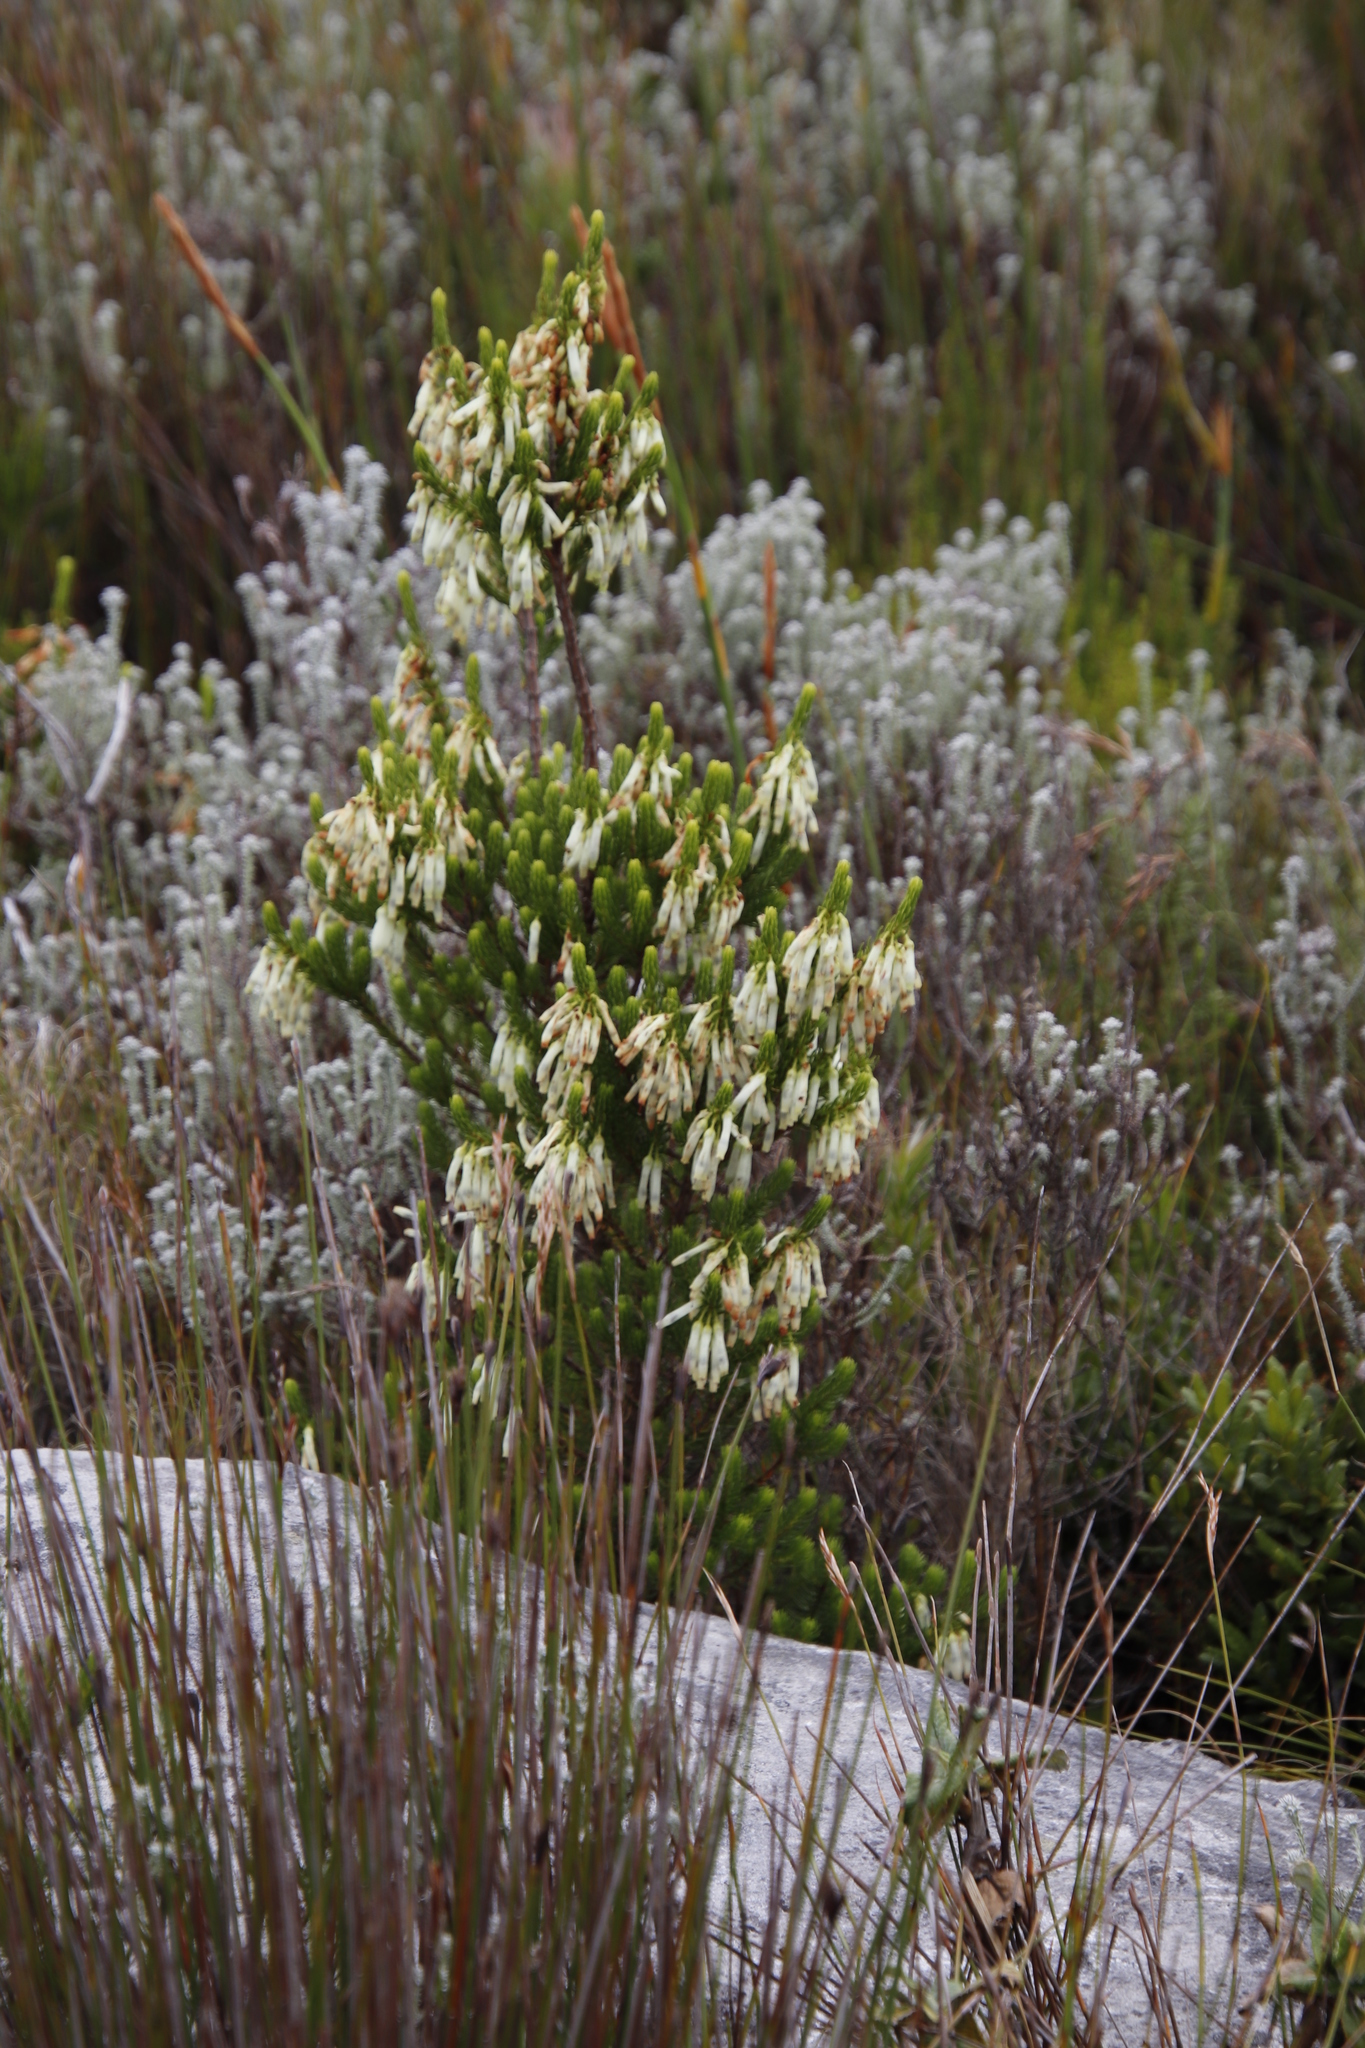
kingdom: Plantae
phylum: Tracheophyta
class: Magnoliopsida
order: Ericales
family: Ericaceae
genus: Erica
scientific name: Erica mammosa
